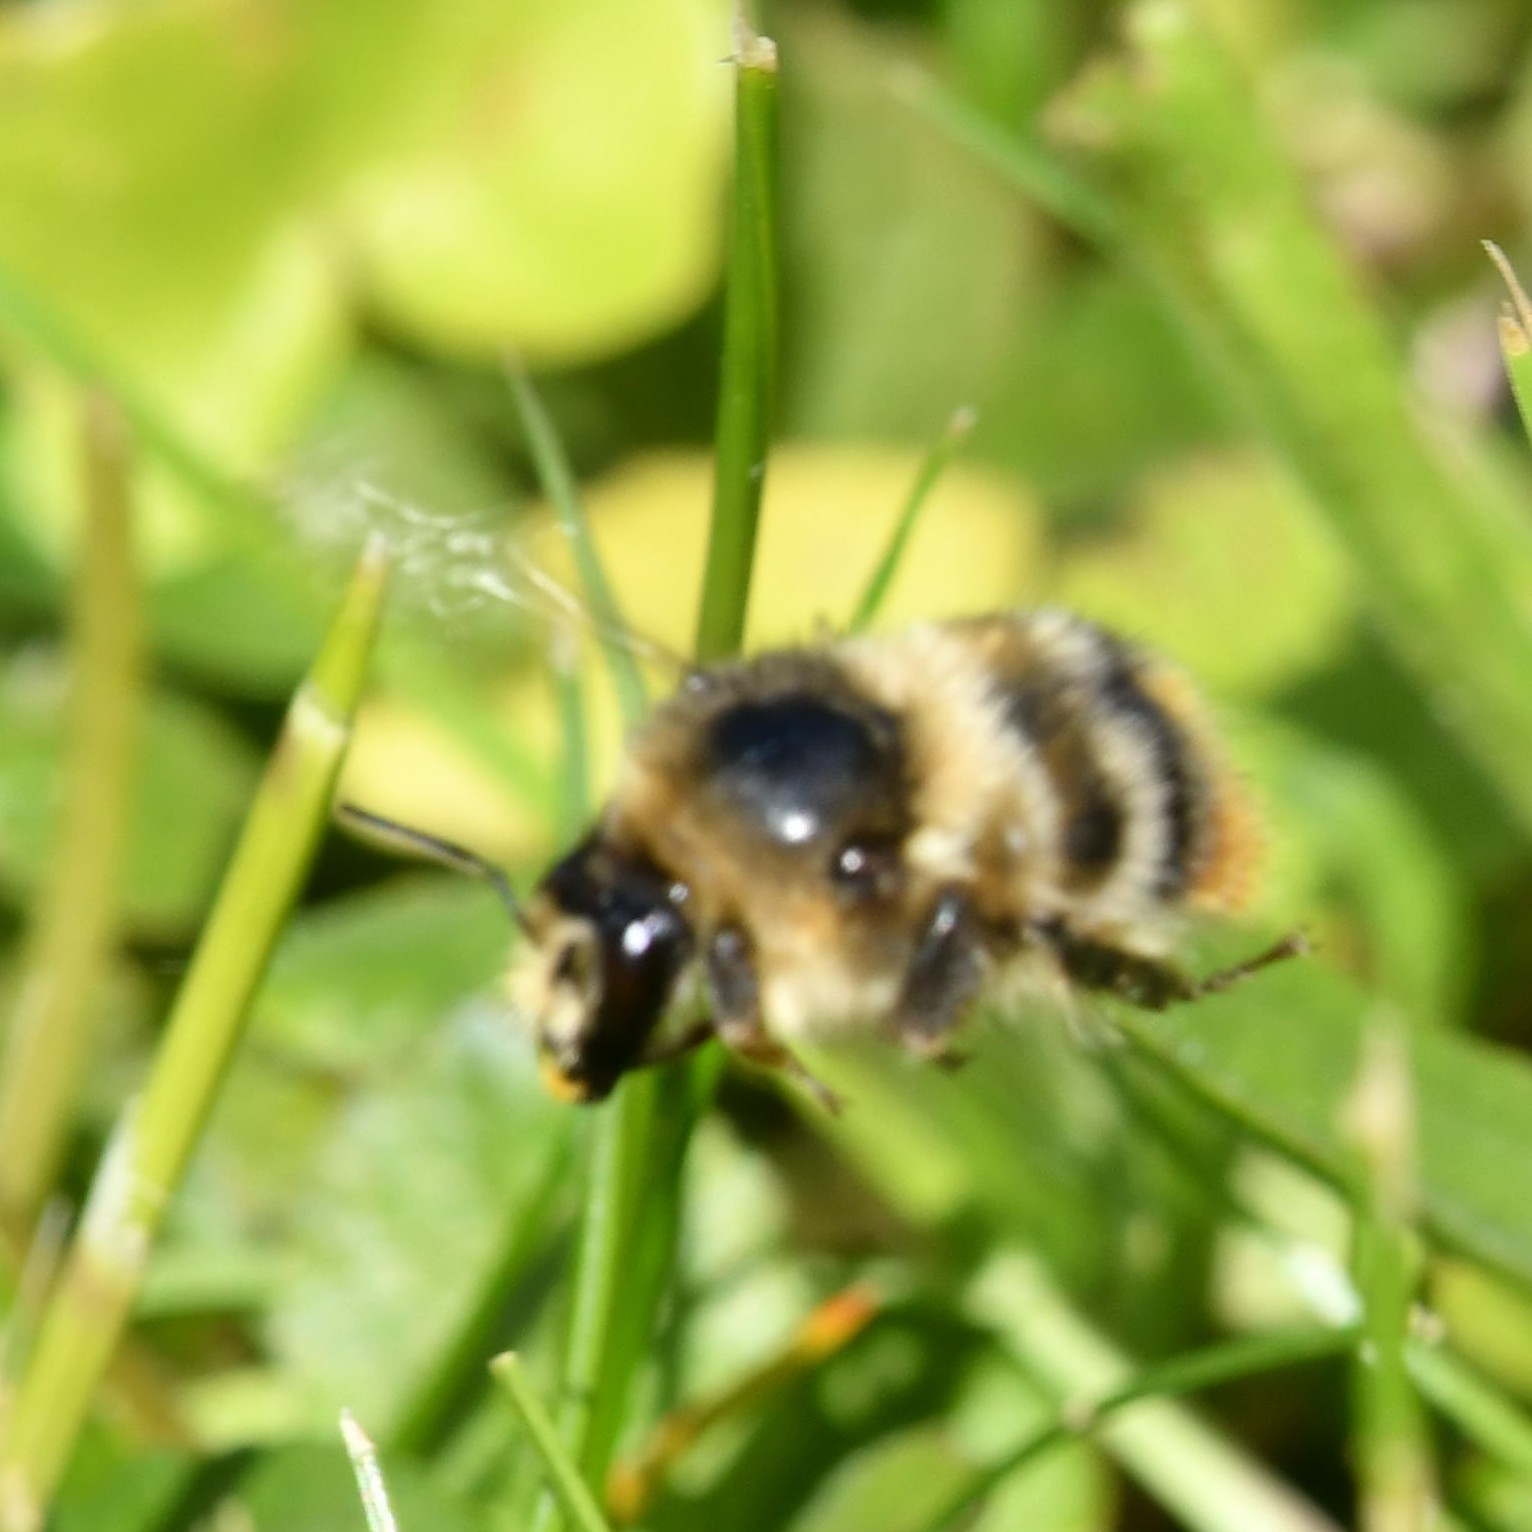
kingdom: Animalia
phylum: Arthropoda
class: Insecta
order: Hymenoptera
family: Apidae
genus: Bombus
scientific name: Bombus sylvarum
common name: Shrill carder bee
